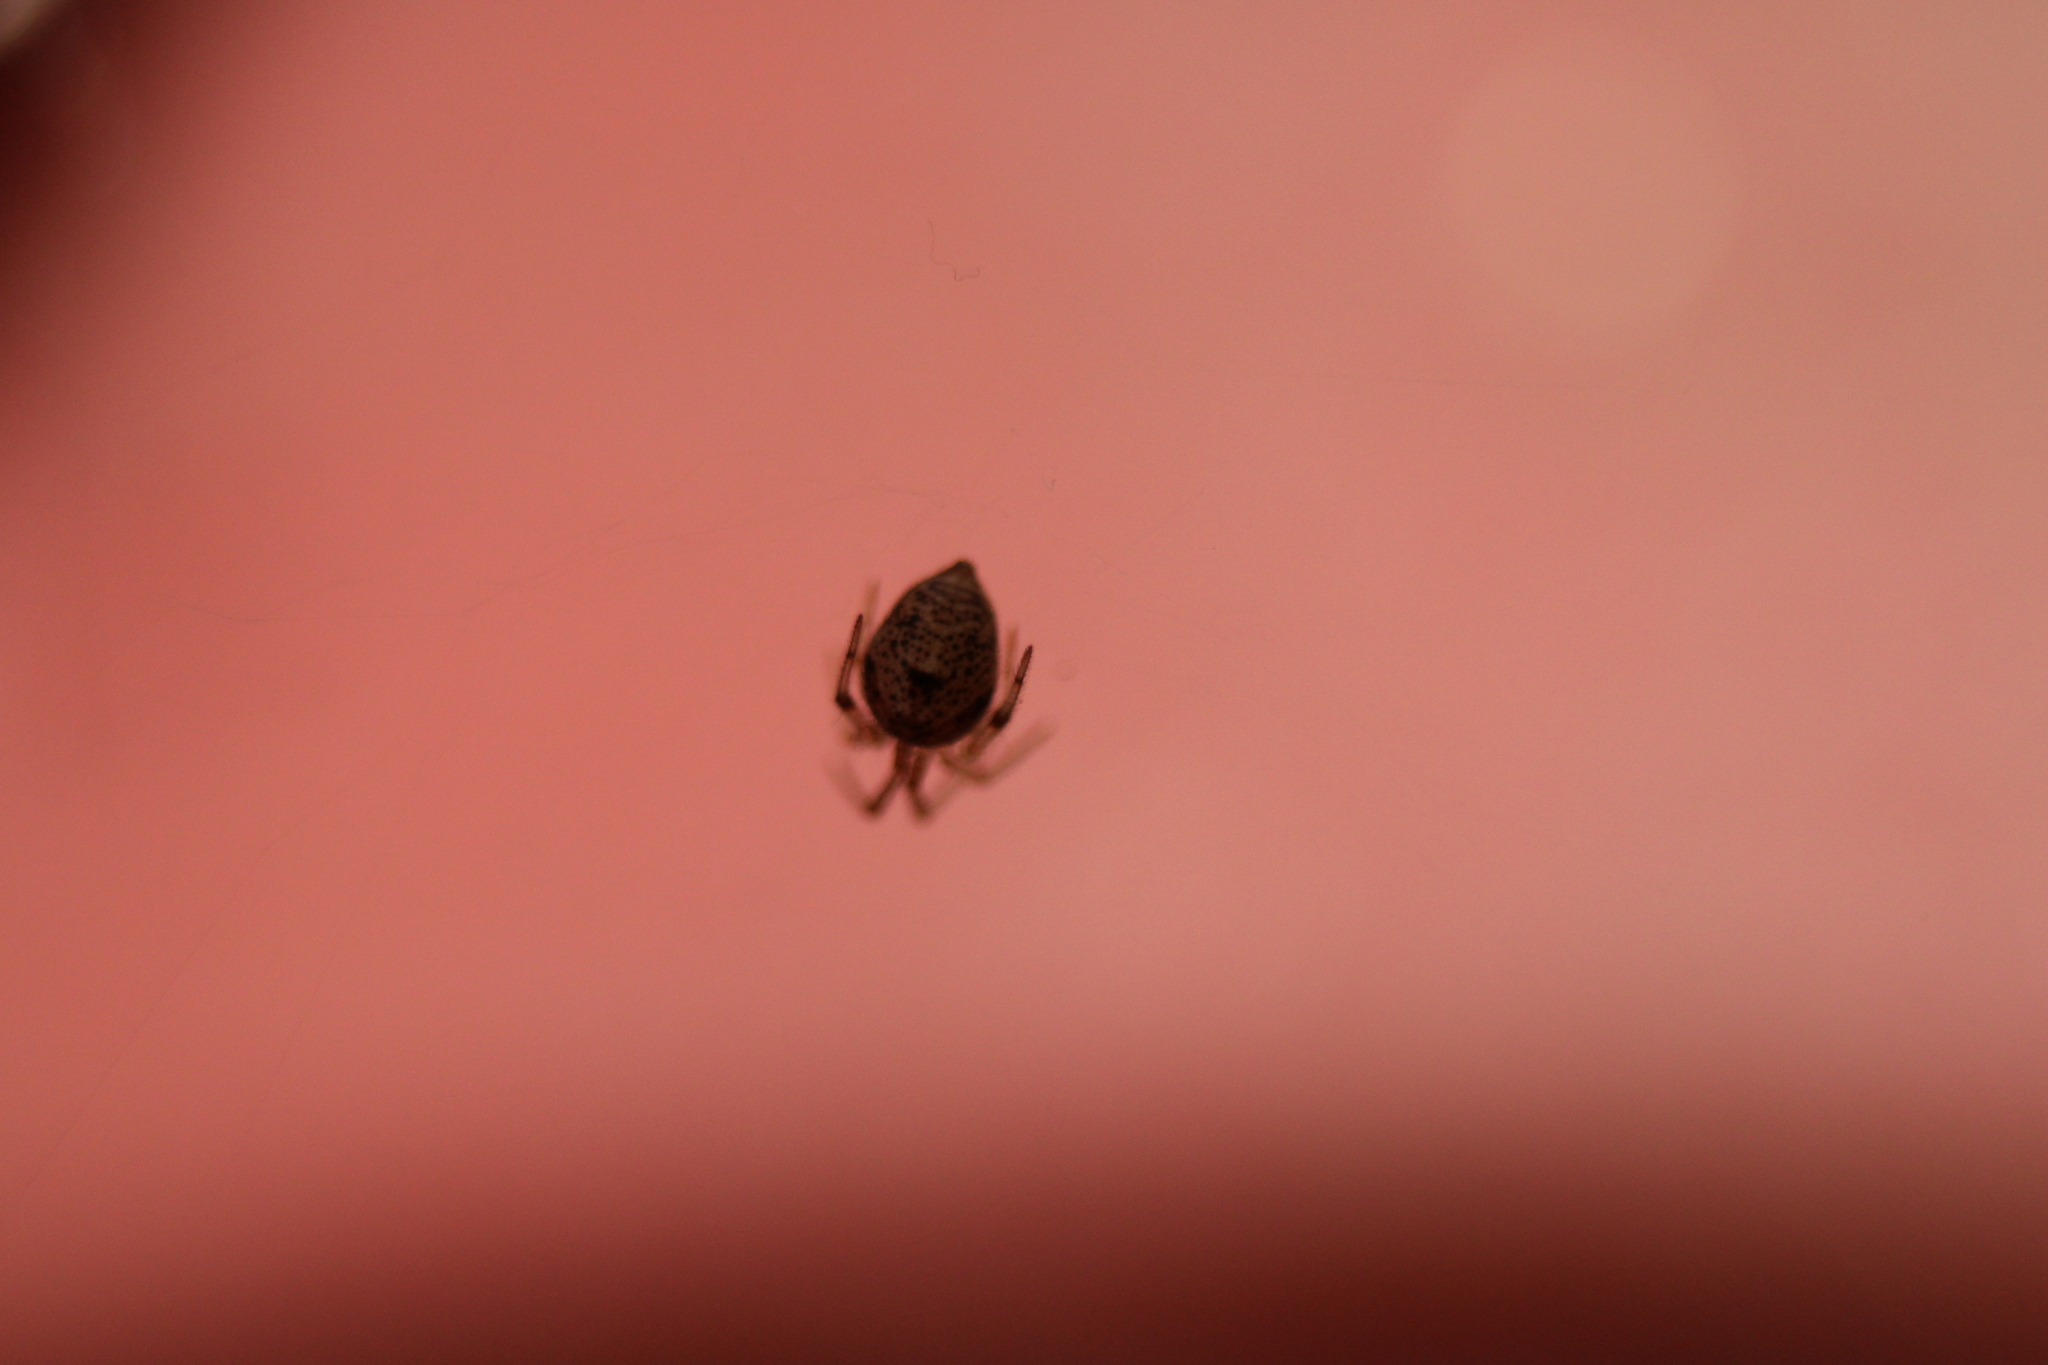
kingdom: Animalia
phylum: Arthropoda
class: Arachnida
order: Araneae
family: Theridiidae
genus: Parasteatoda
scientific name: Parasteatoda tepidariorum
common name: Common house spider
